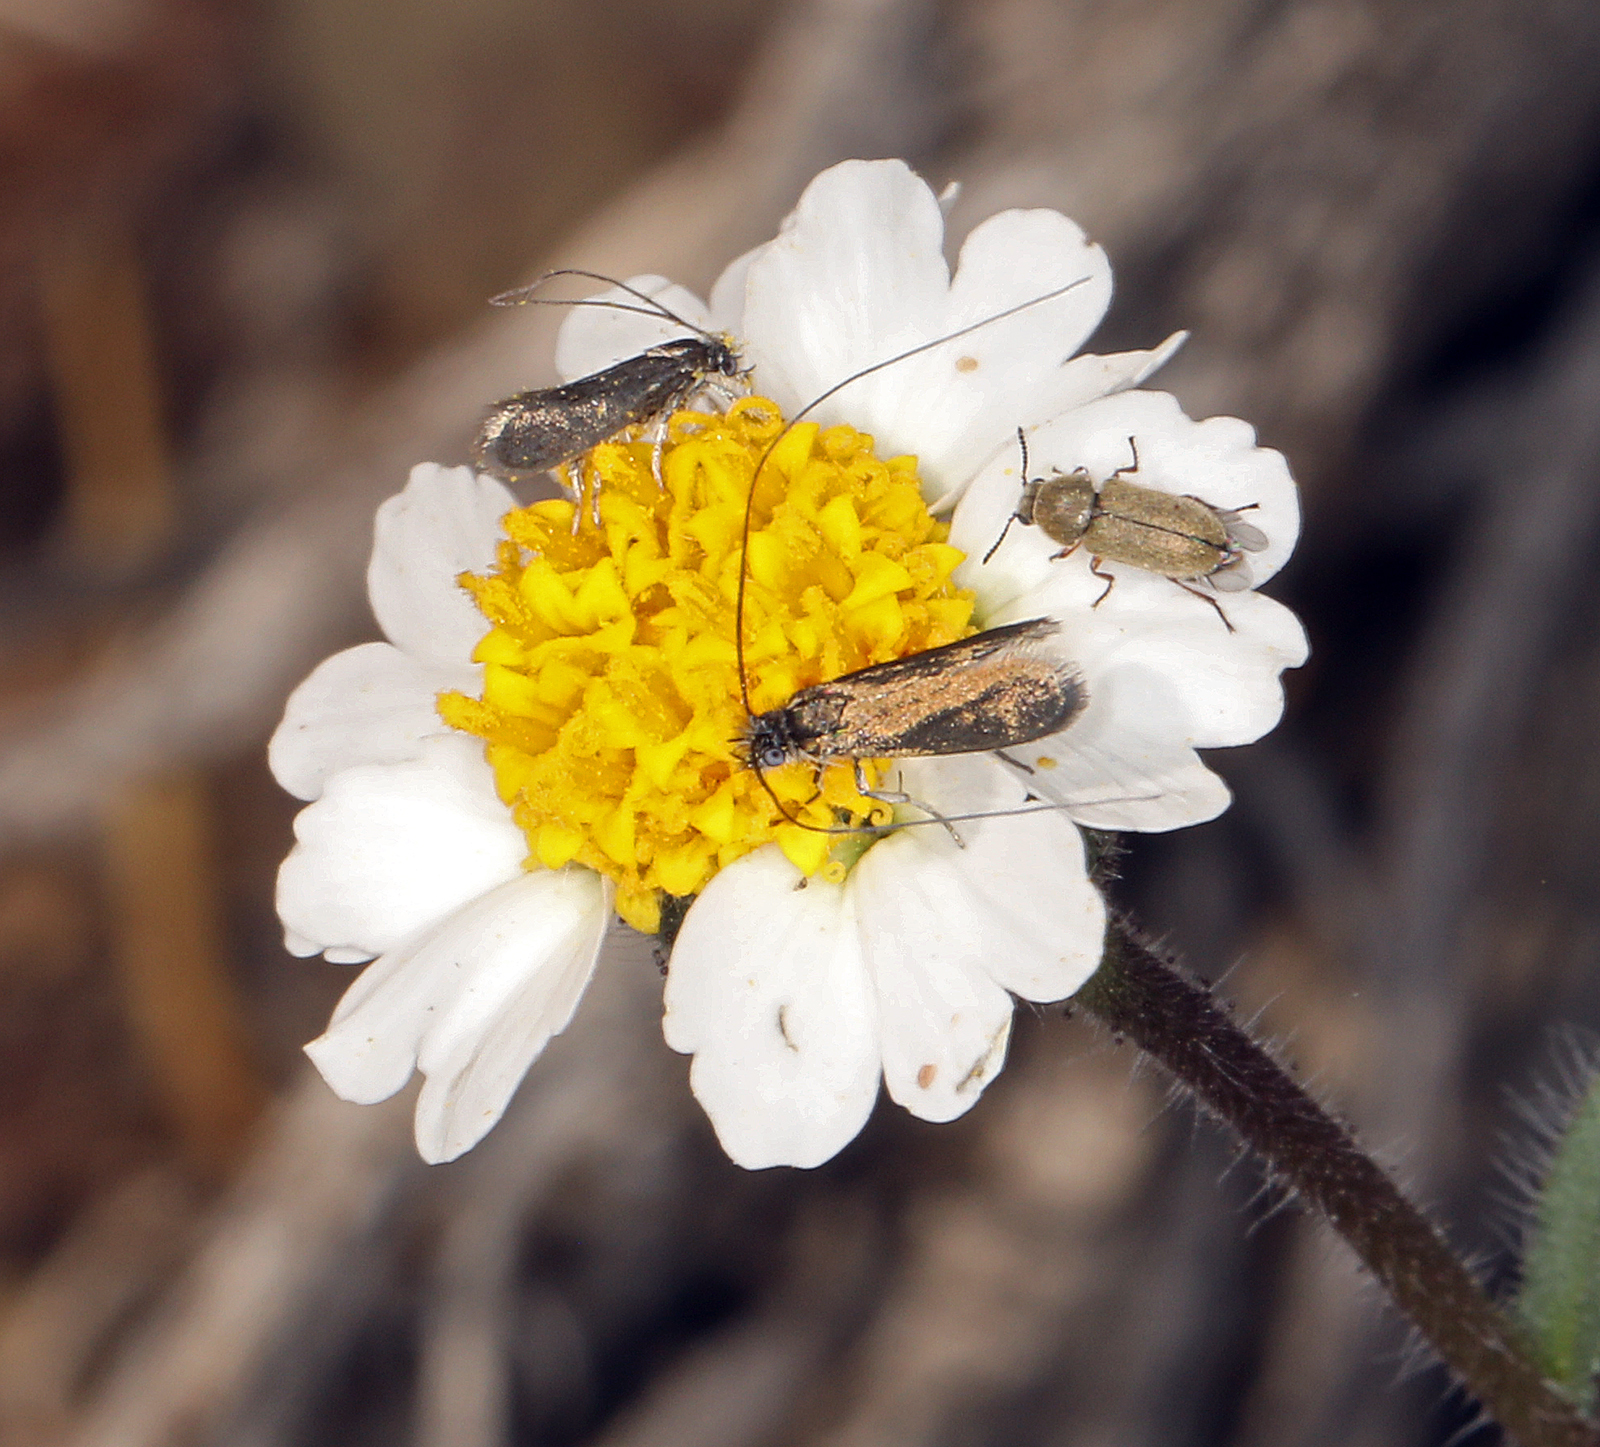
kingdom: Plantae
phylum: Tracheophyta
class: Magnoliopsida
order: Asterales
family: Asteraceae
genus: Layia
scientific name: Layia glandulosa
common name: White layia
